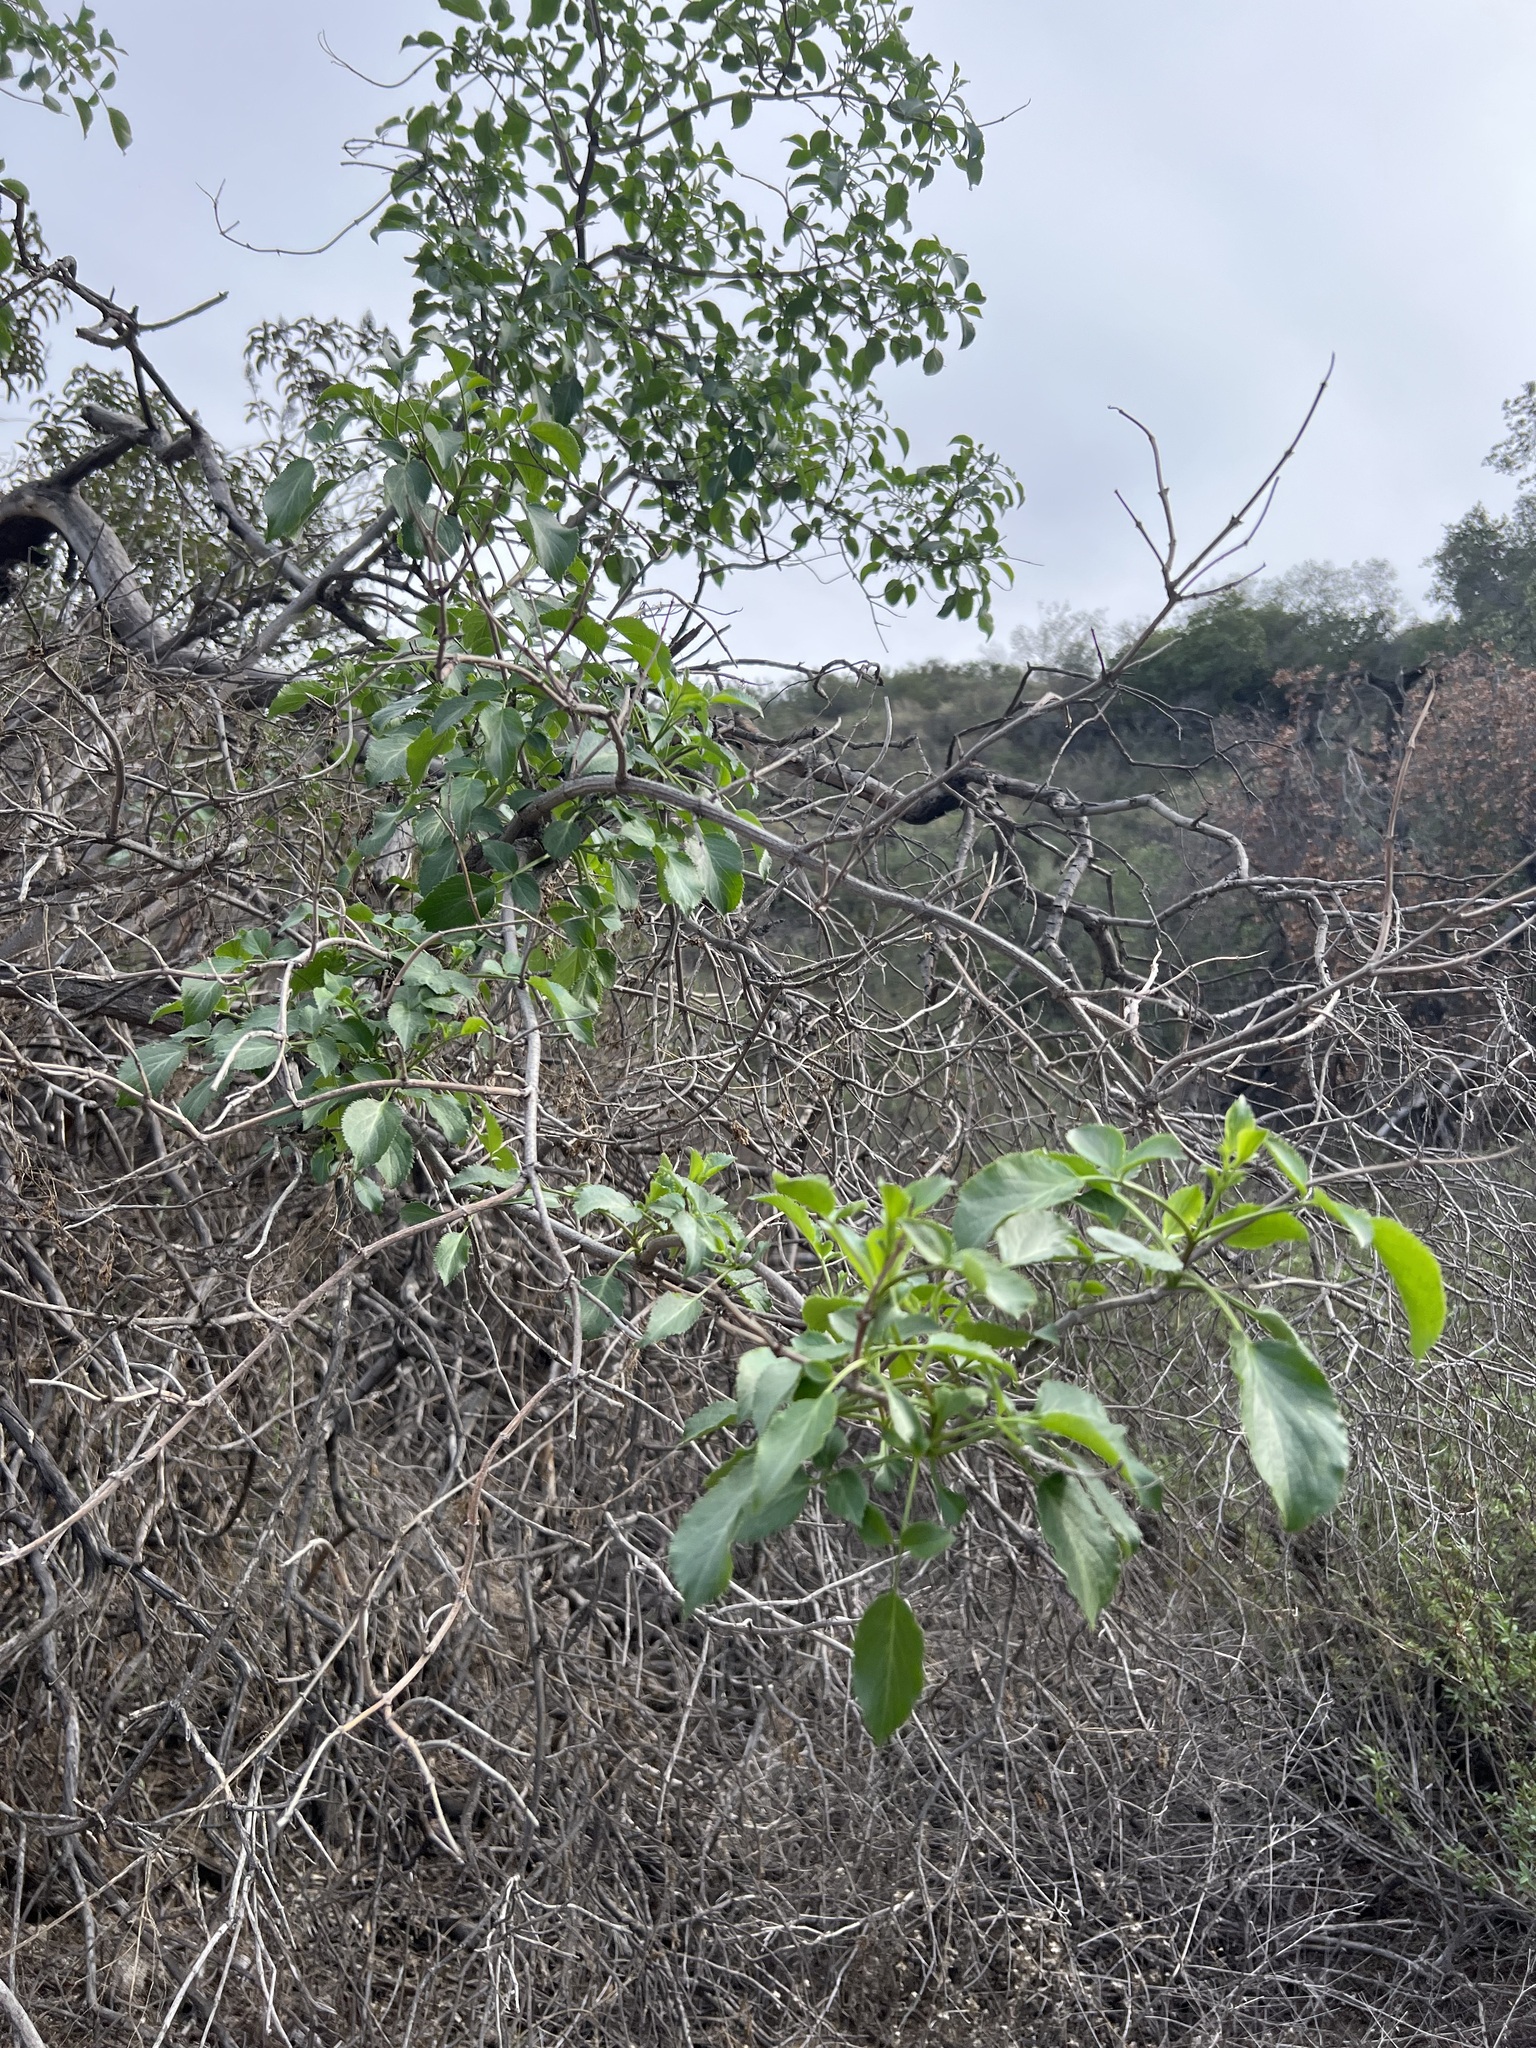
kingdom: Plantae
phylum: Tracheophyta
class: Magnoliopsida
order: Dipsacales
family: Viburnaceae
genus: Sambucus
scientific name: Sambucus cerulea
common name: Blue elder
